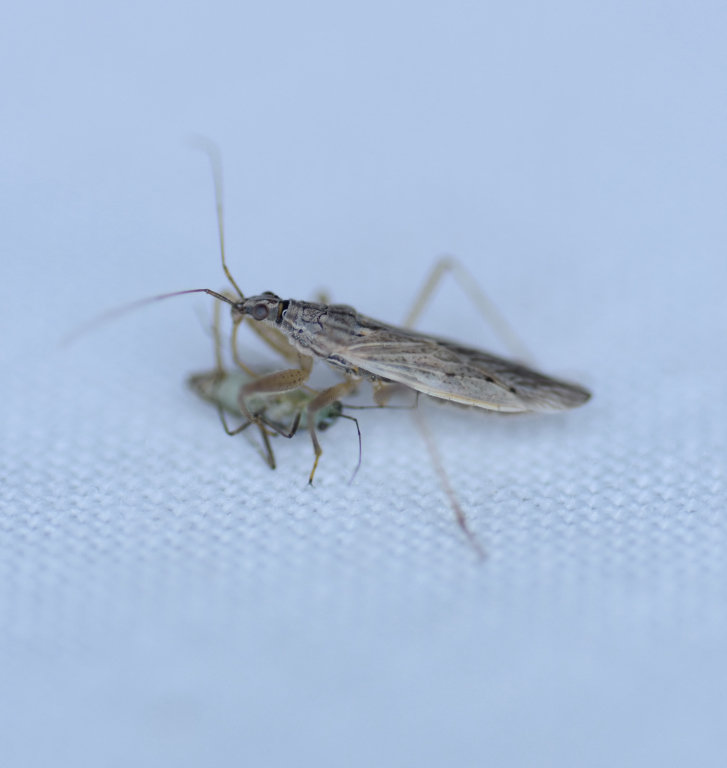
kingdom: Animalia
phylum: Arthropoda
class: Insecta
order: Hemiptera
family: Nabidae
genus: Nabis
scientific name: Nabis americoferus
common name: Common damsel bug
